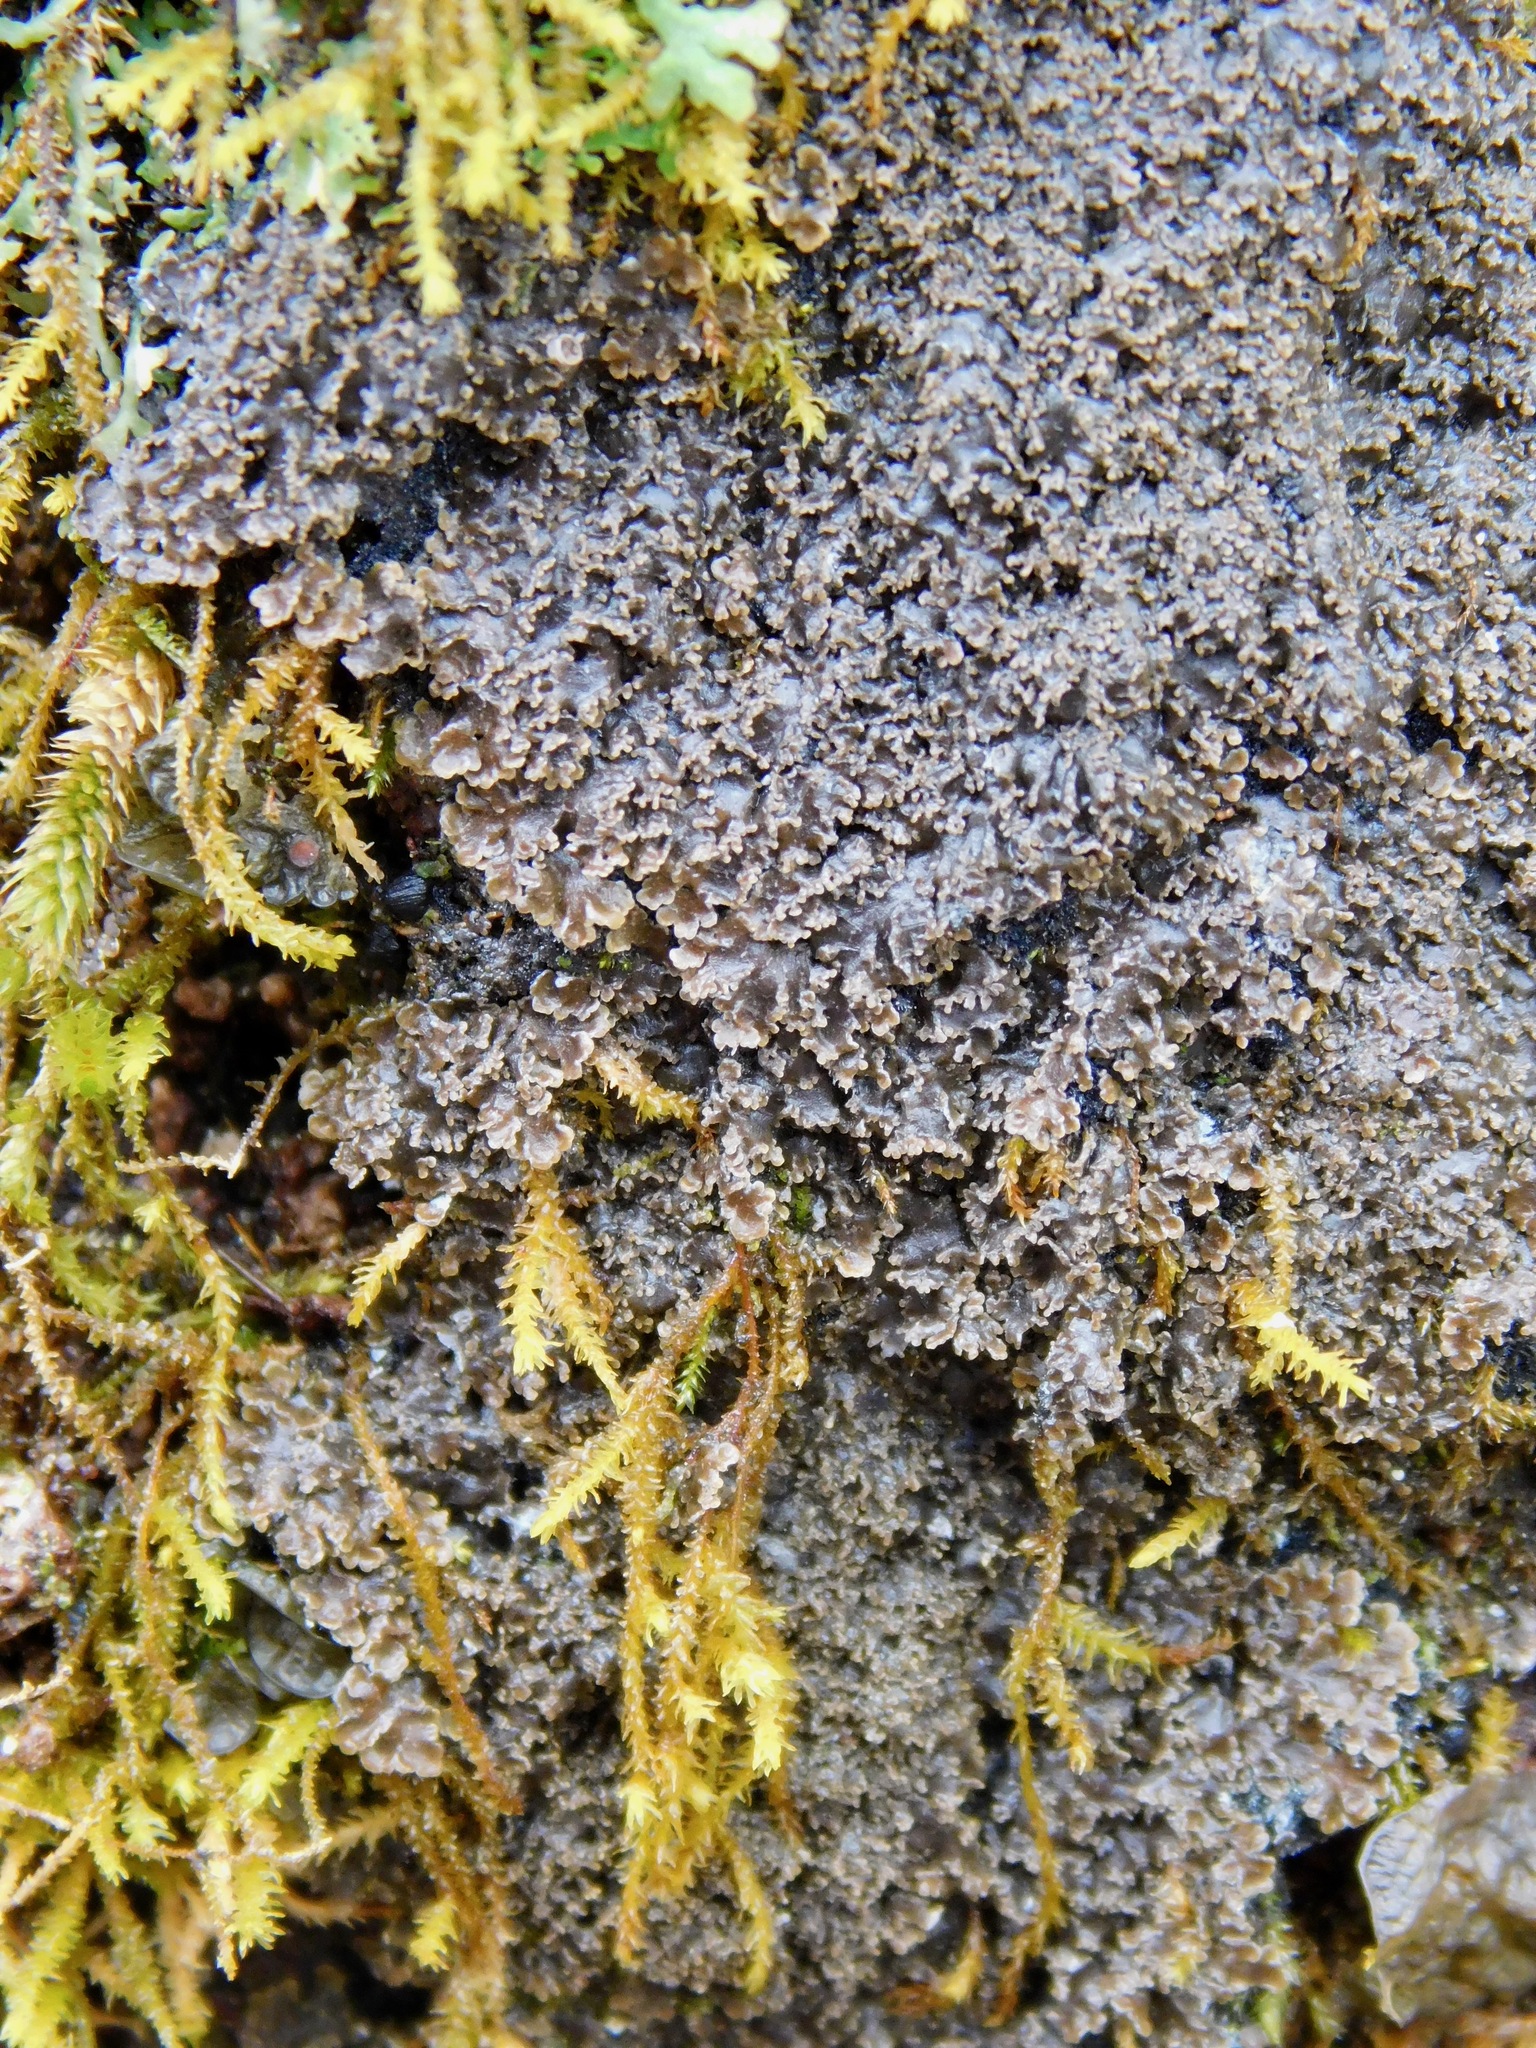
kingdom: Fungi
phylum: Ascomycota
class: Lecanoromycetes
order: Peltigerales
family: Pannariaceae
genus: Fuscopannaria
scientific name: Fuscopannaria sorediata
